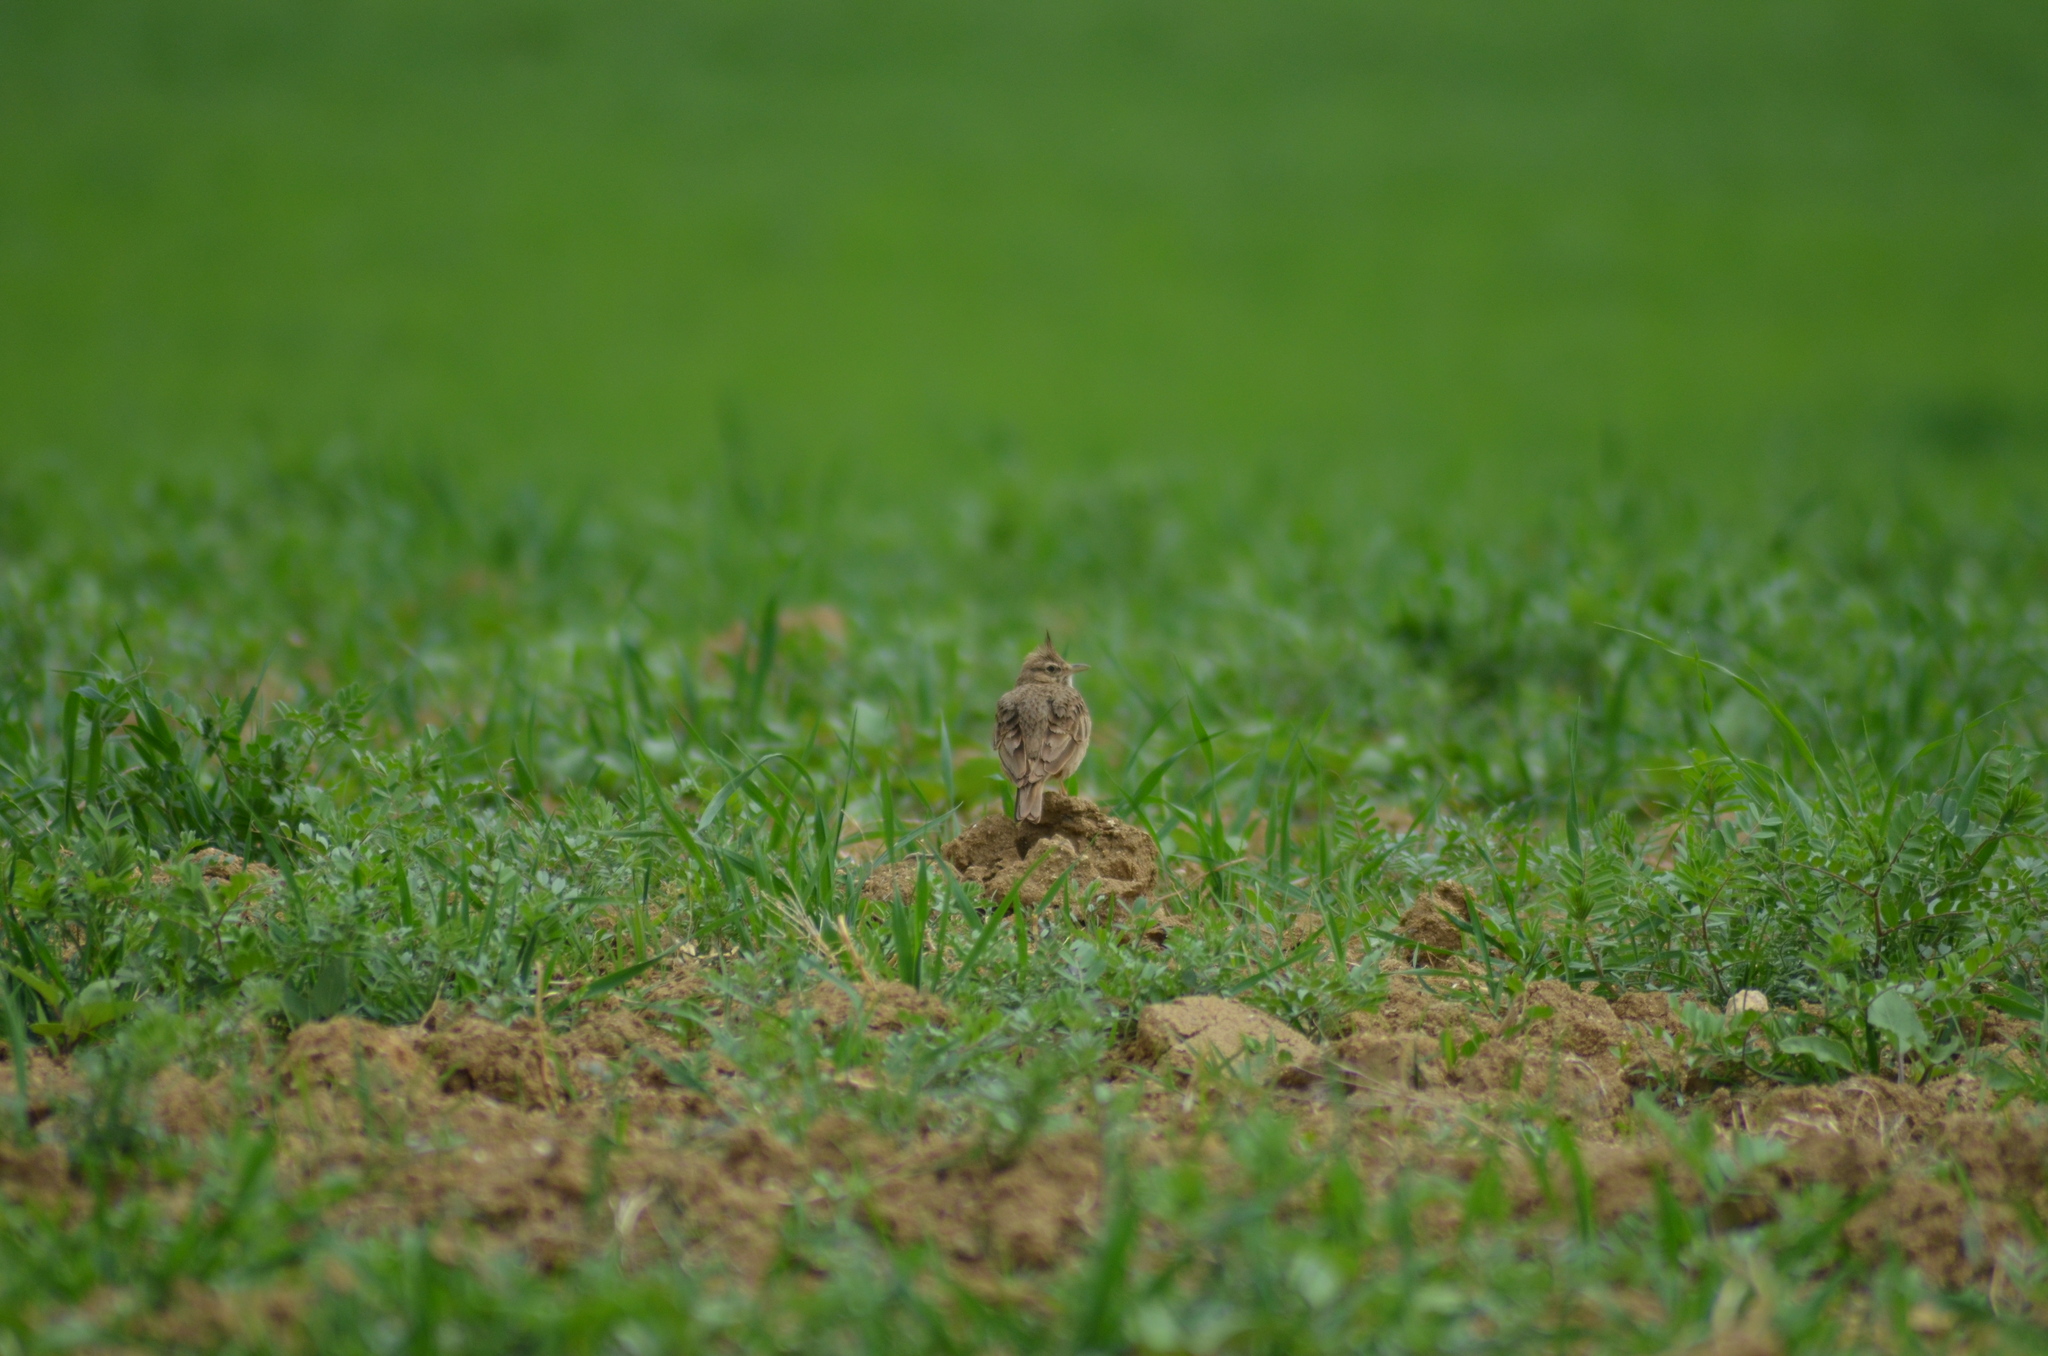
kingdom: Animalia
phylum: Chordata
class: Aves
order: Passeriformes
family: Alaudidae
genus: Galerida
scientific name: Galerida cristata
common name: Crested lark
